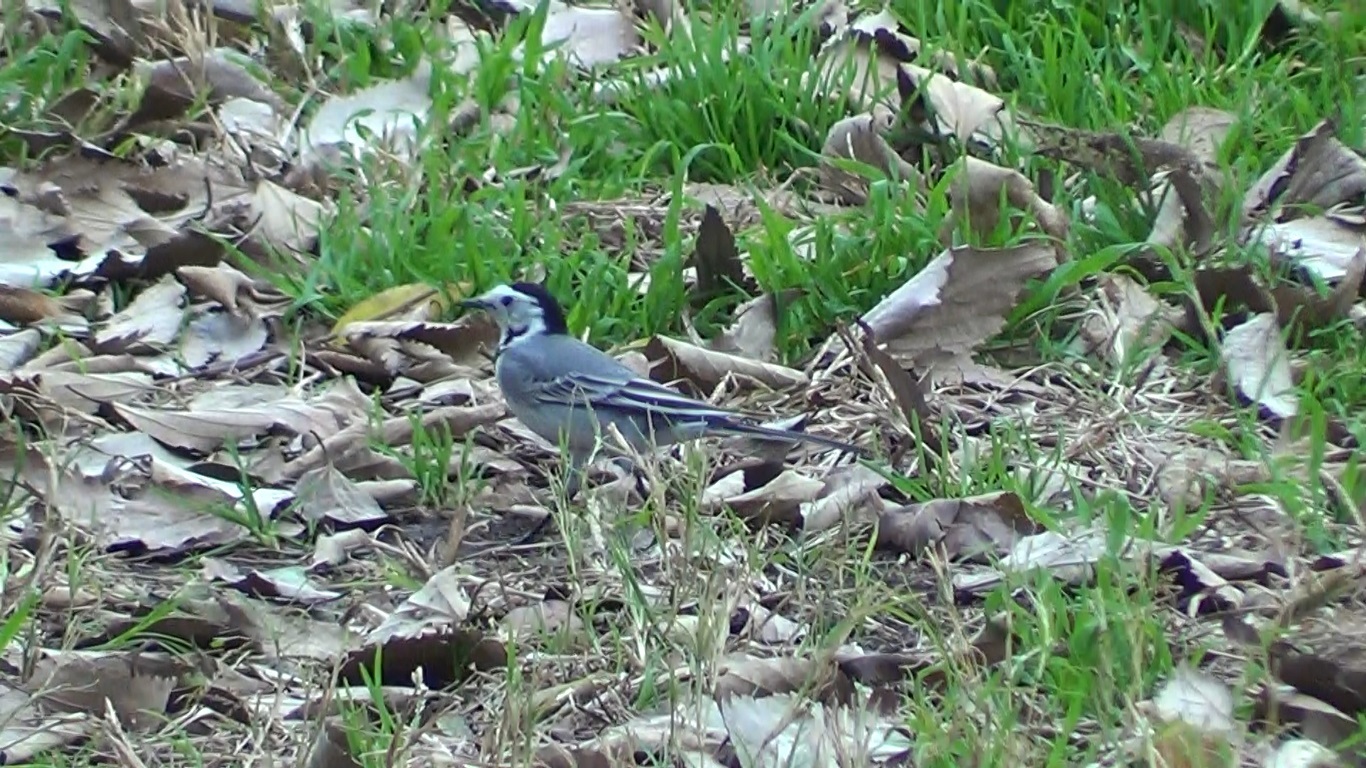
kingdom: Animalia
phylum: Chordata
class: Aves
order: Passeriformes
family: Motacillidae
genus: Motacilla
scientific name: Motacilla alba
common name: White wagtail
